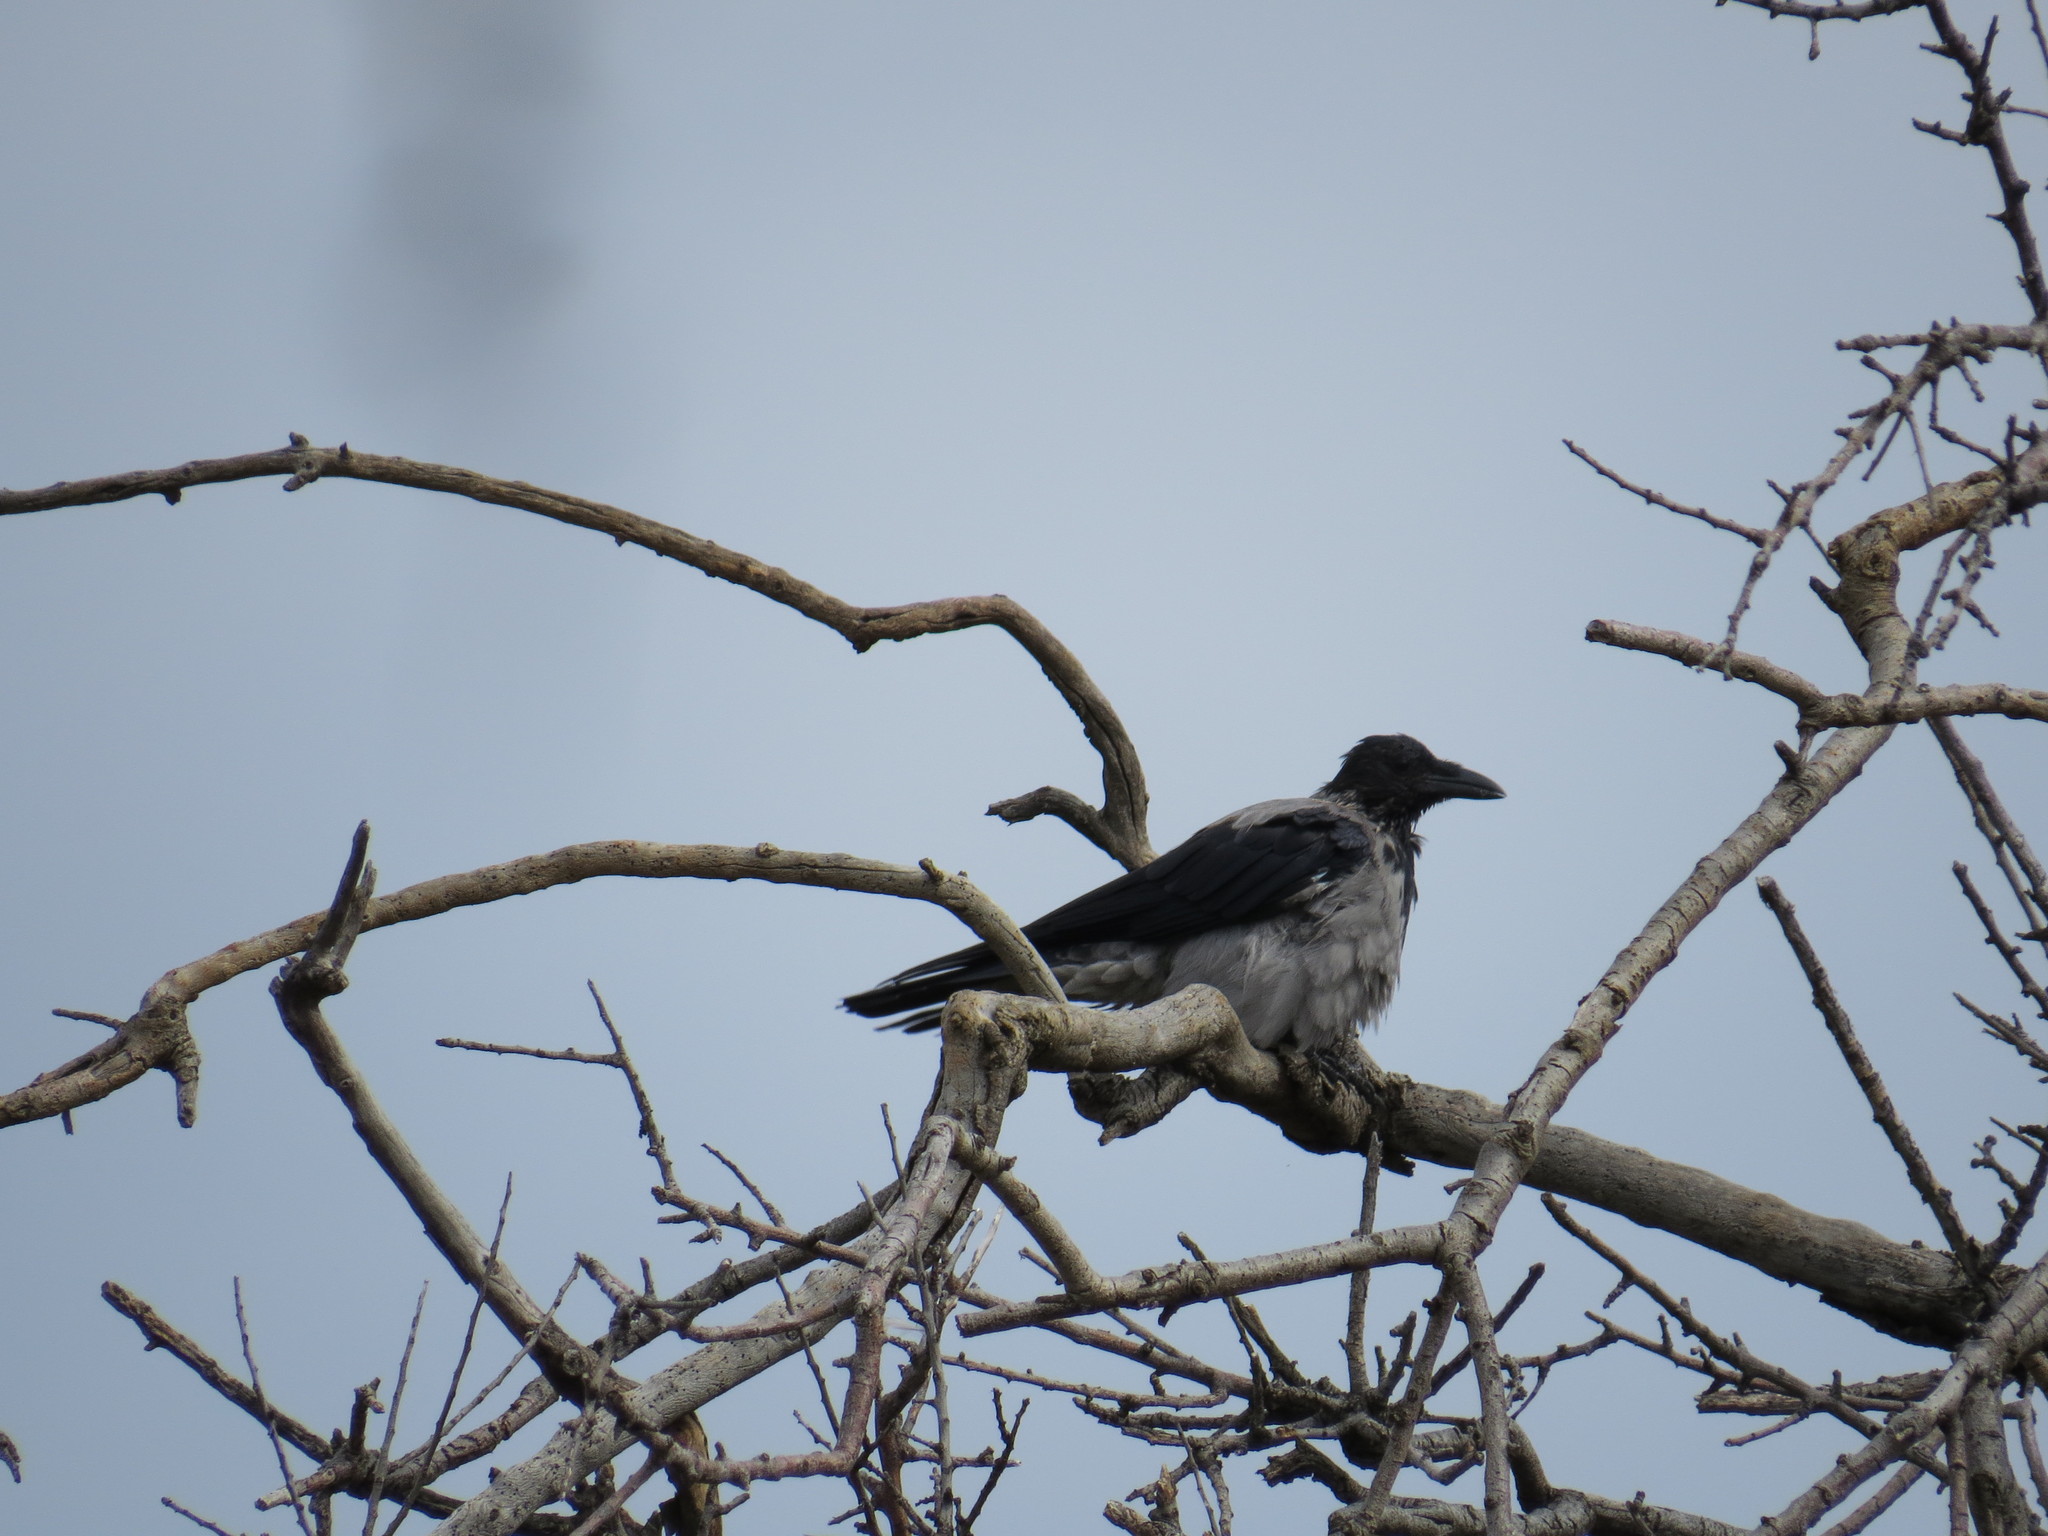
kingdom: Animalia
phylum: Chordata
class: Aves
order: Passeriformes
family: Corvidae
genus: Corvus
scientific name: Corvus cornix
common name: Hooded crow
